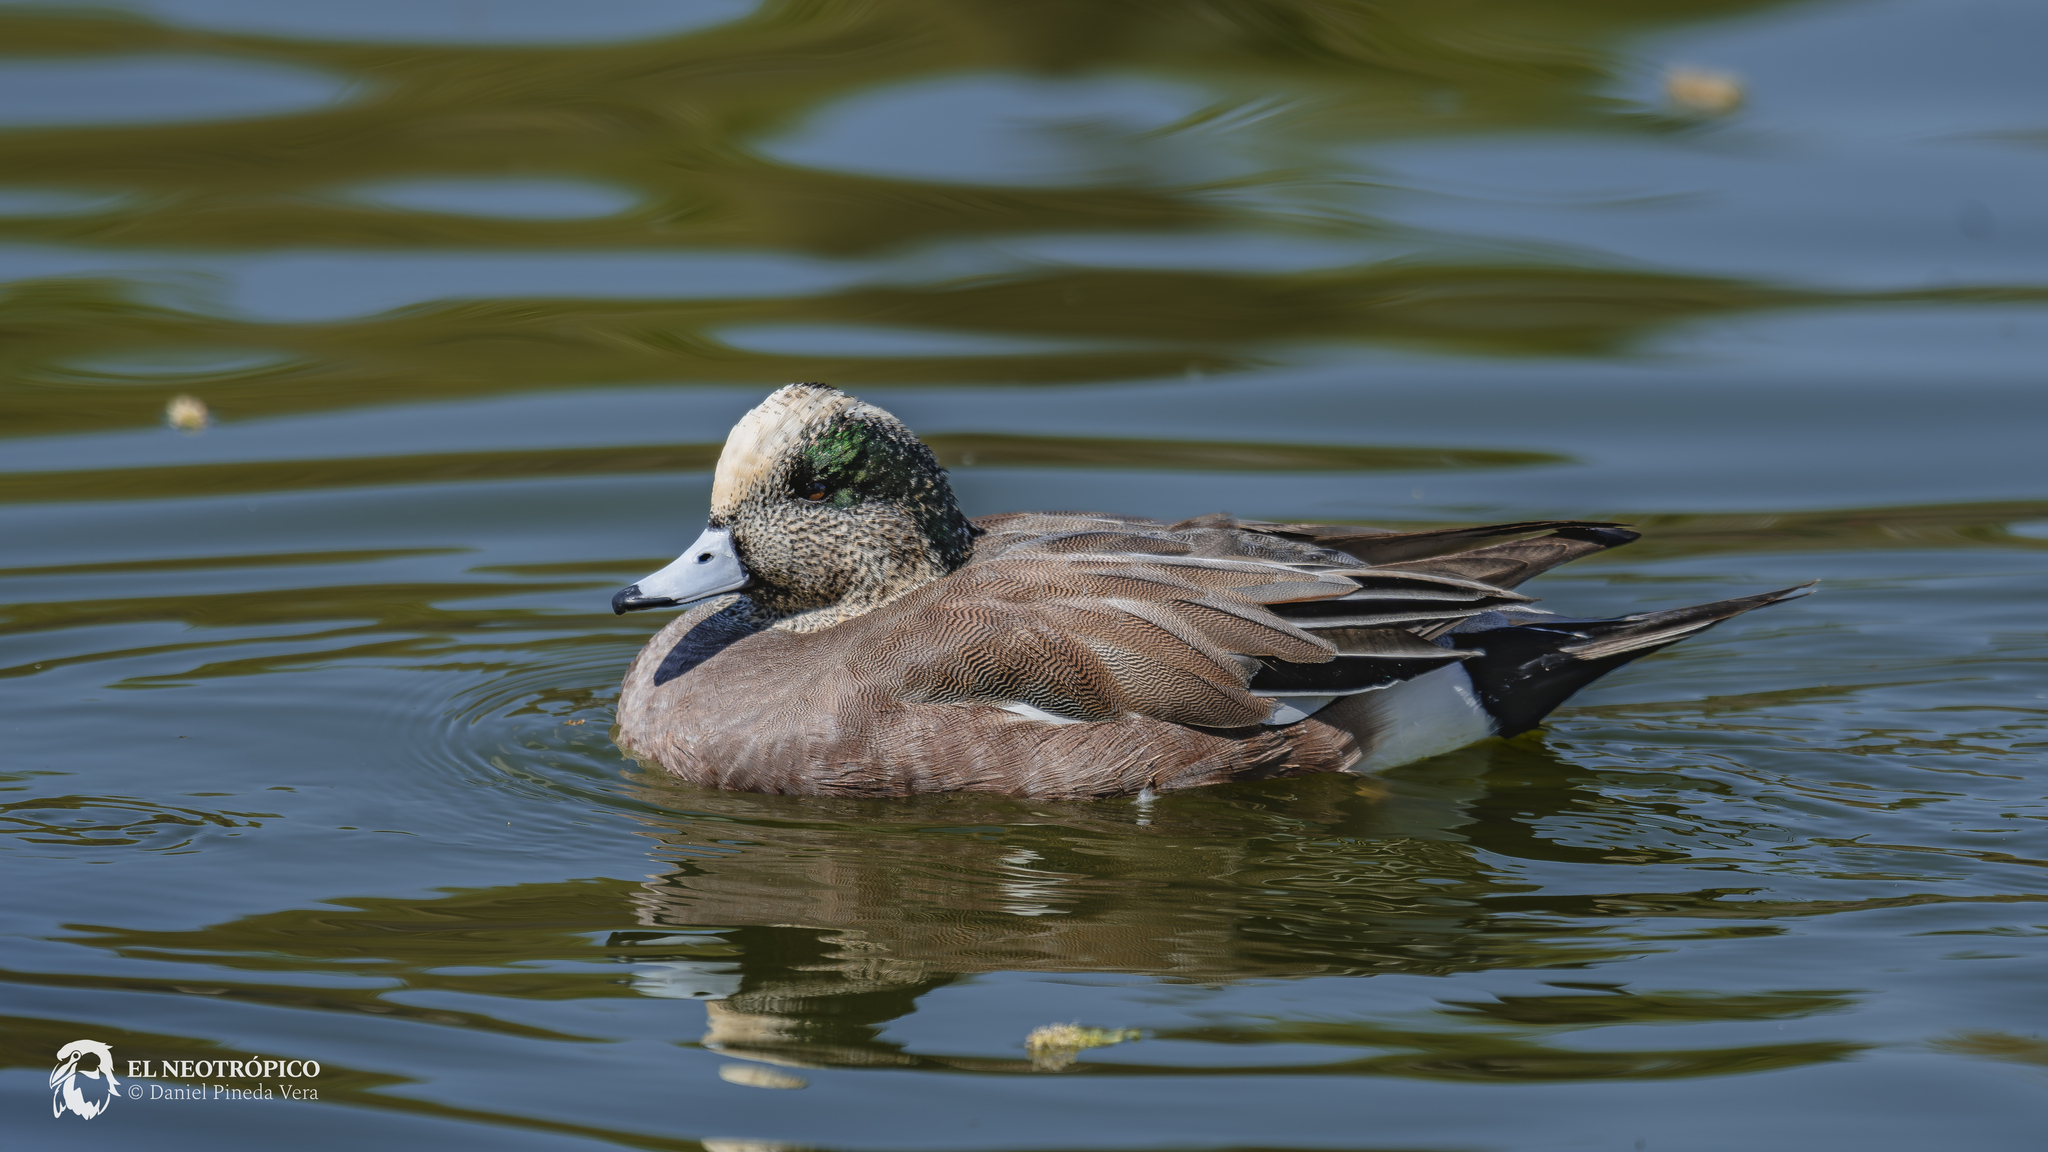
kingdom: Animalia
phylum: Chordata
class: Aves
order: Anseriformes
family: Anatidae
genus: Mareca
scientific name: Mareca americana
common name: American wigeon
